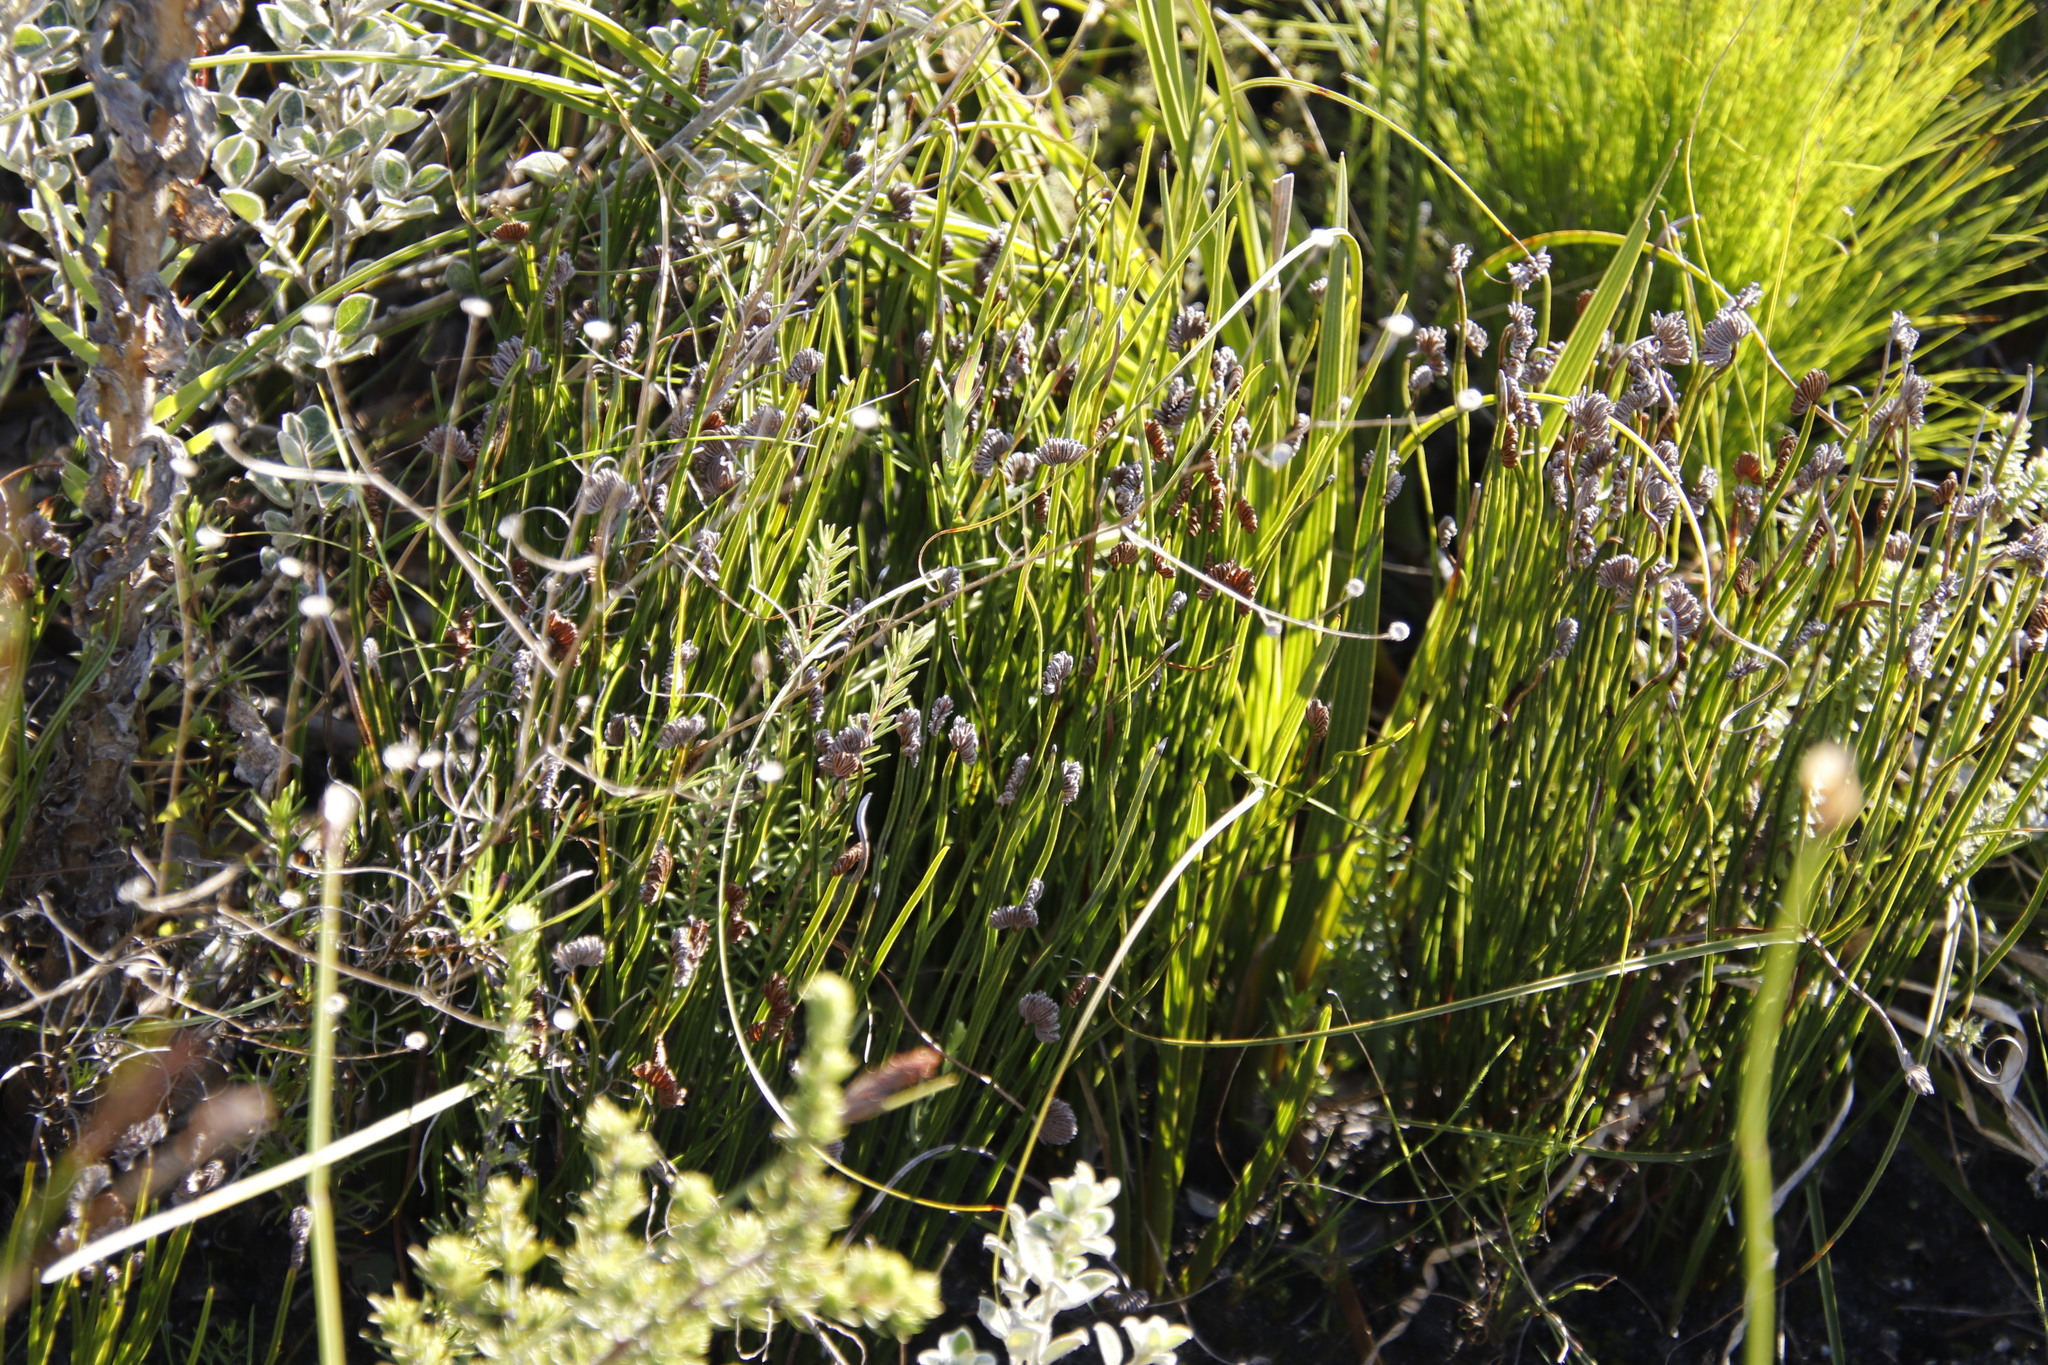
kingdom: Plantae
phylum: Tracheophyta
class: Polypodiopsida
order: Schizaeales
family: Schizaeaceae
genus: Schizaea
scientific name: Schizaea pectinata
